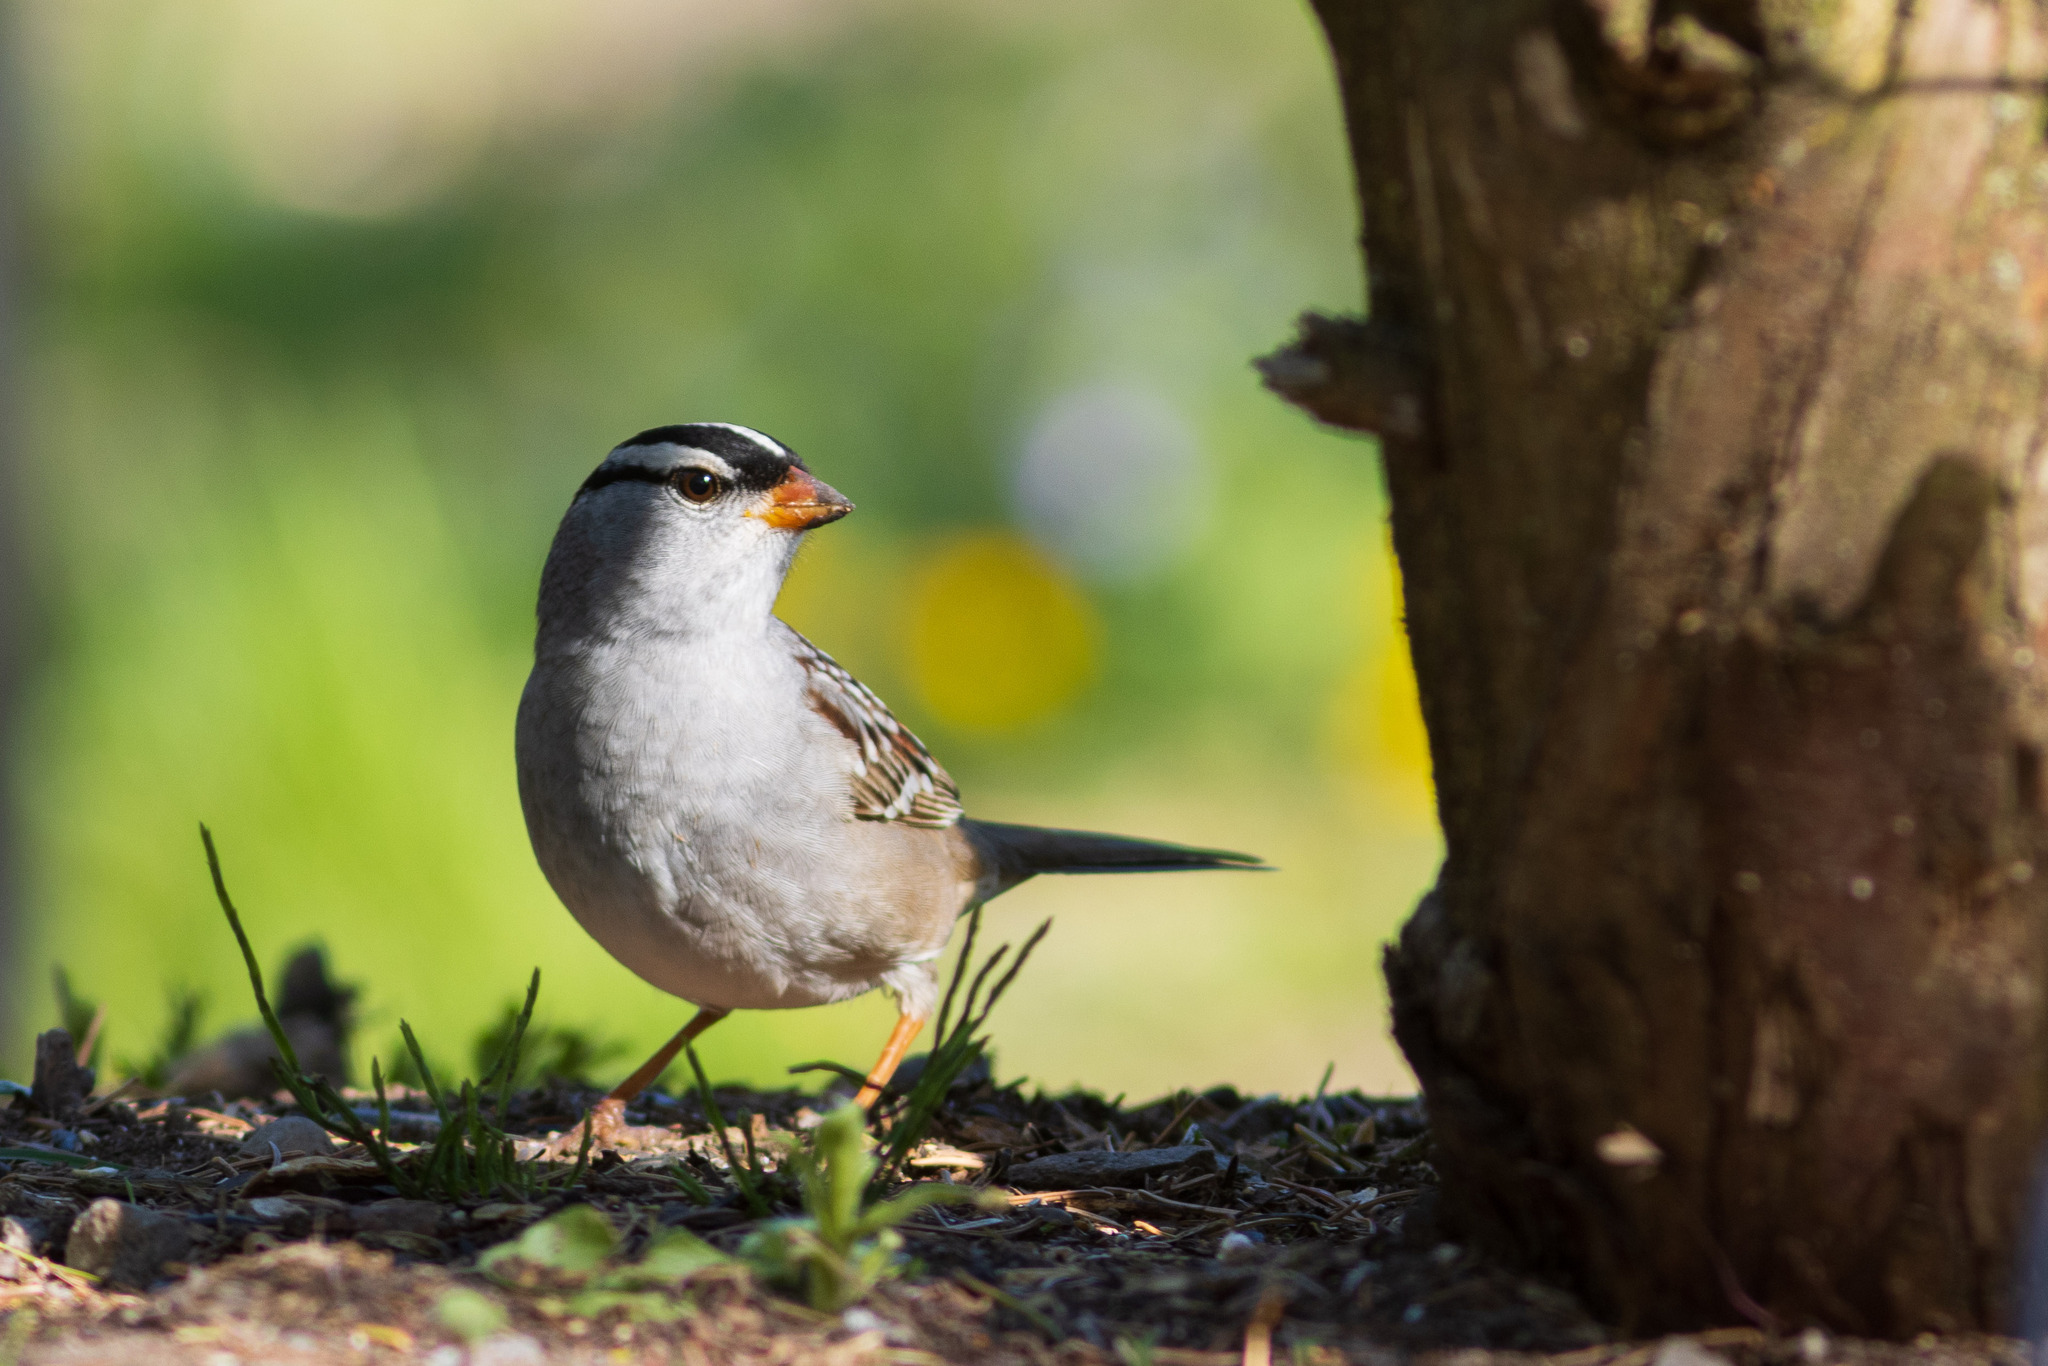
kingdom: Animalia
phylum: Chordata
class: Aves
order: Passeriformes
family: Passerellidae
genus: Zonotrichia
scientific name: Zonotrichia leucophrys
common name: White-crowned sparrow
